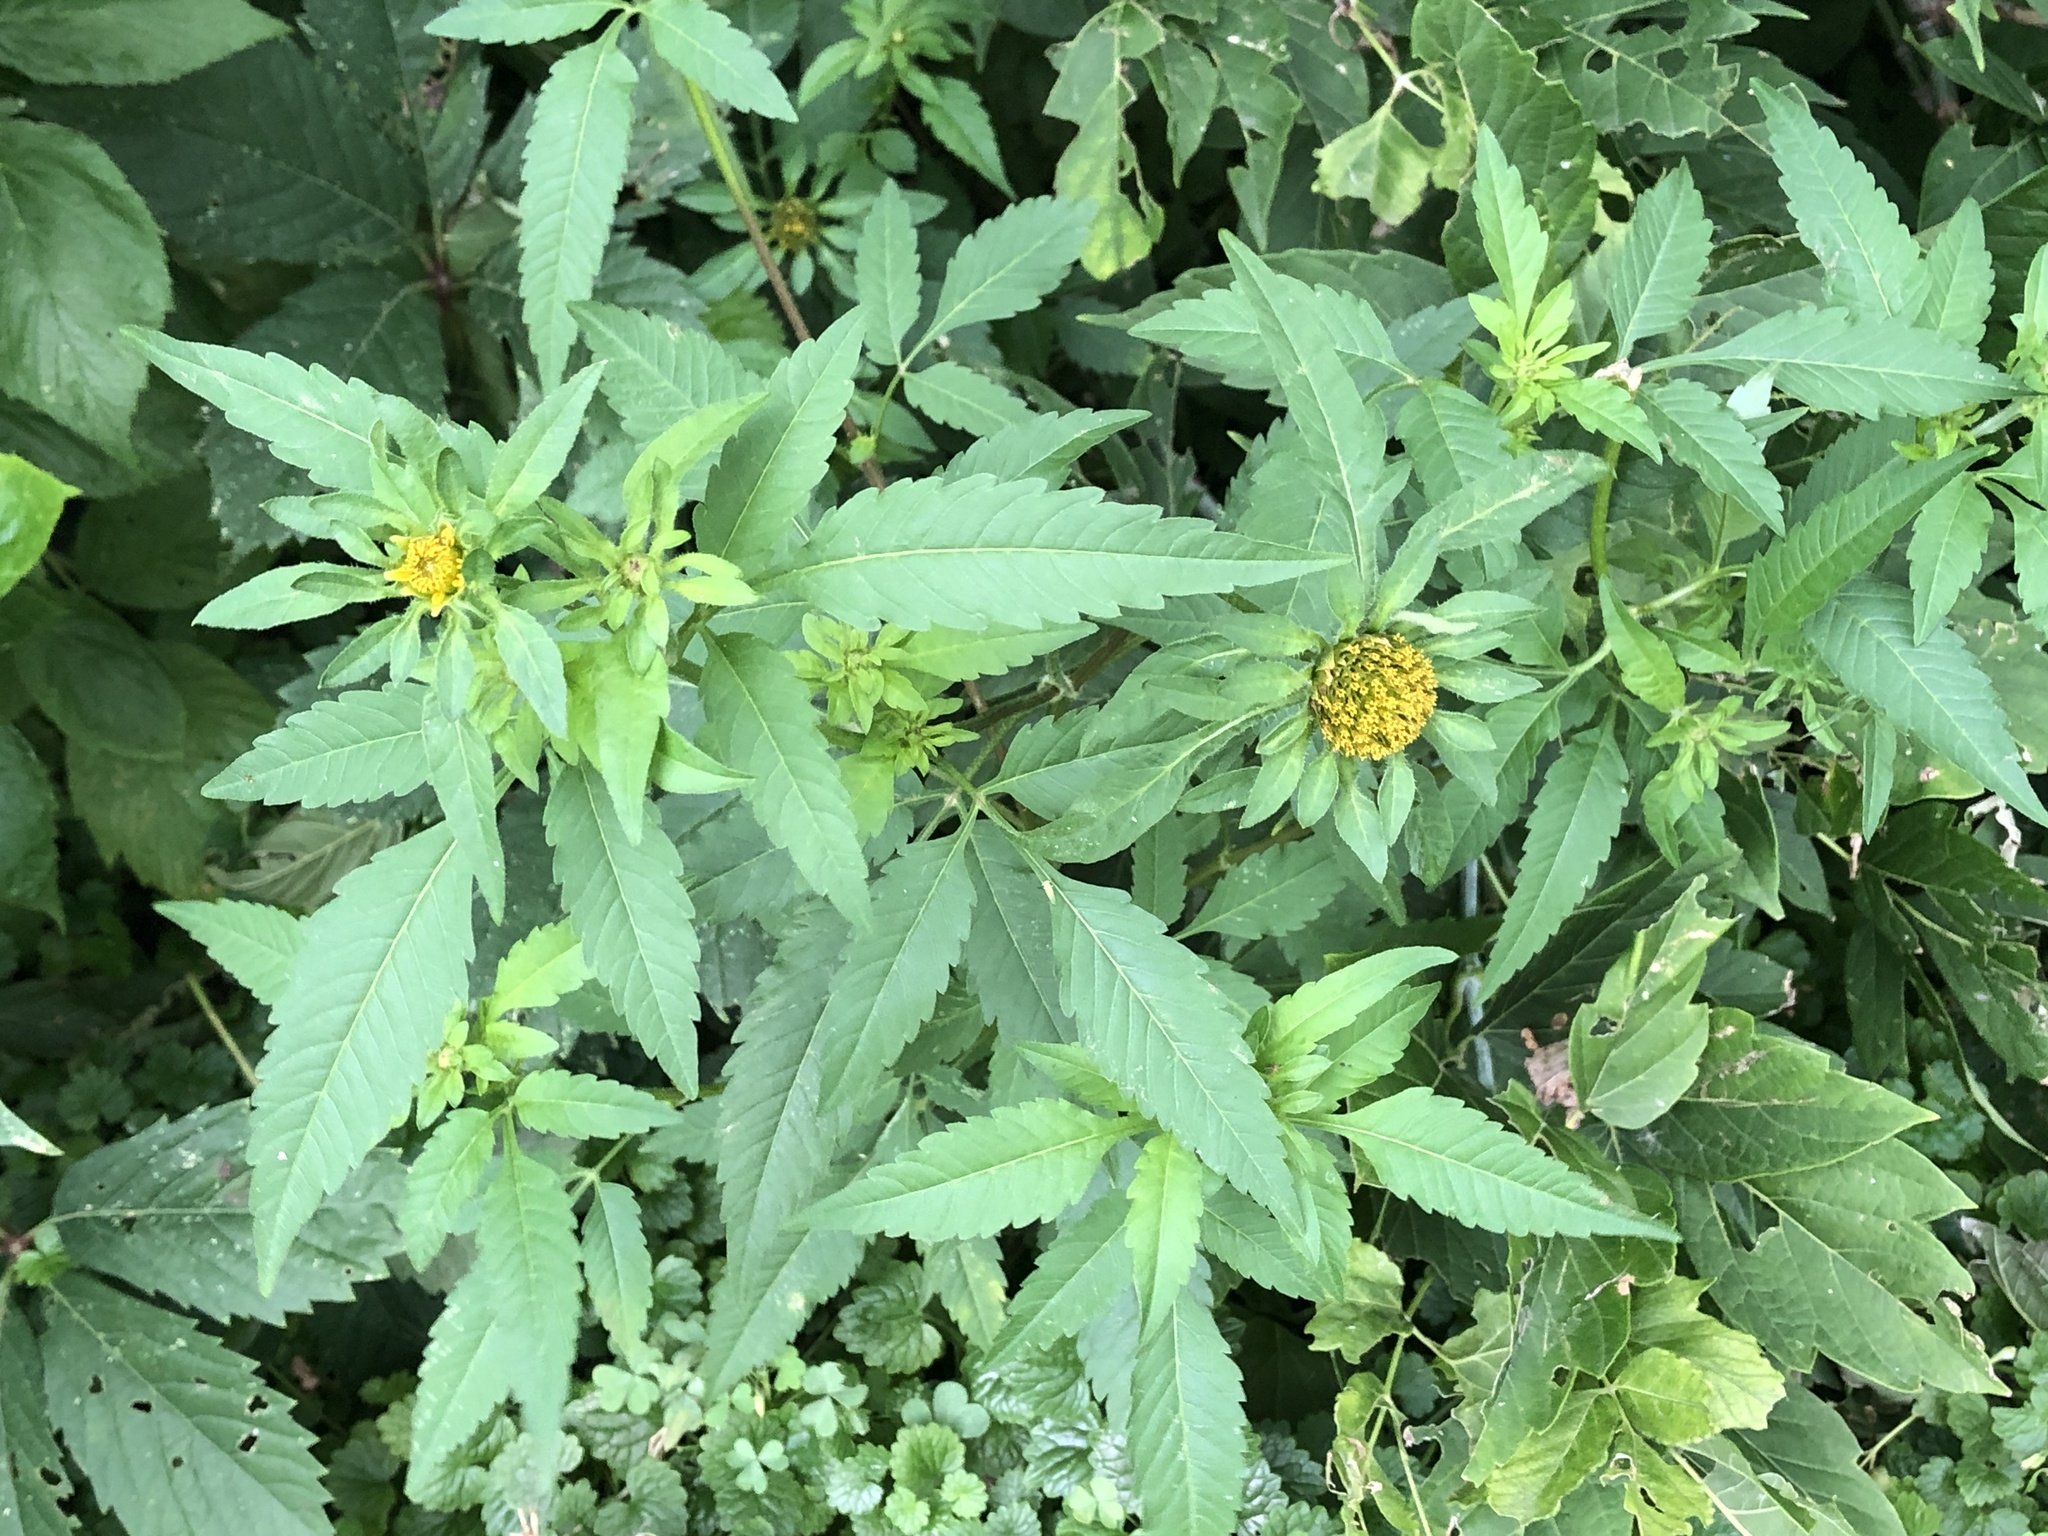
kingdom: Plantae
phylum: Tracheophyta
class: Magnoliopsida
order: Asterales
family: Asteraceae
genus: Bidens
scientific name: Bidens vulgata
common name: Tall beggarticks
